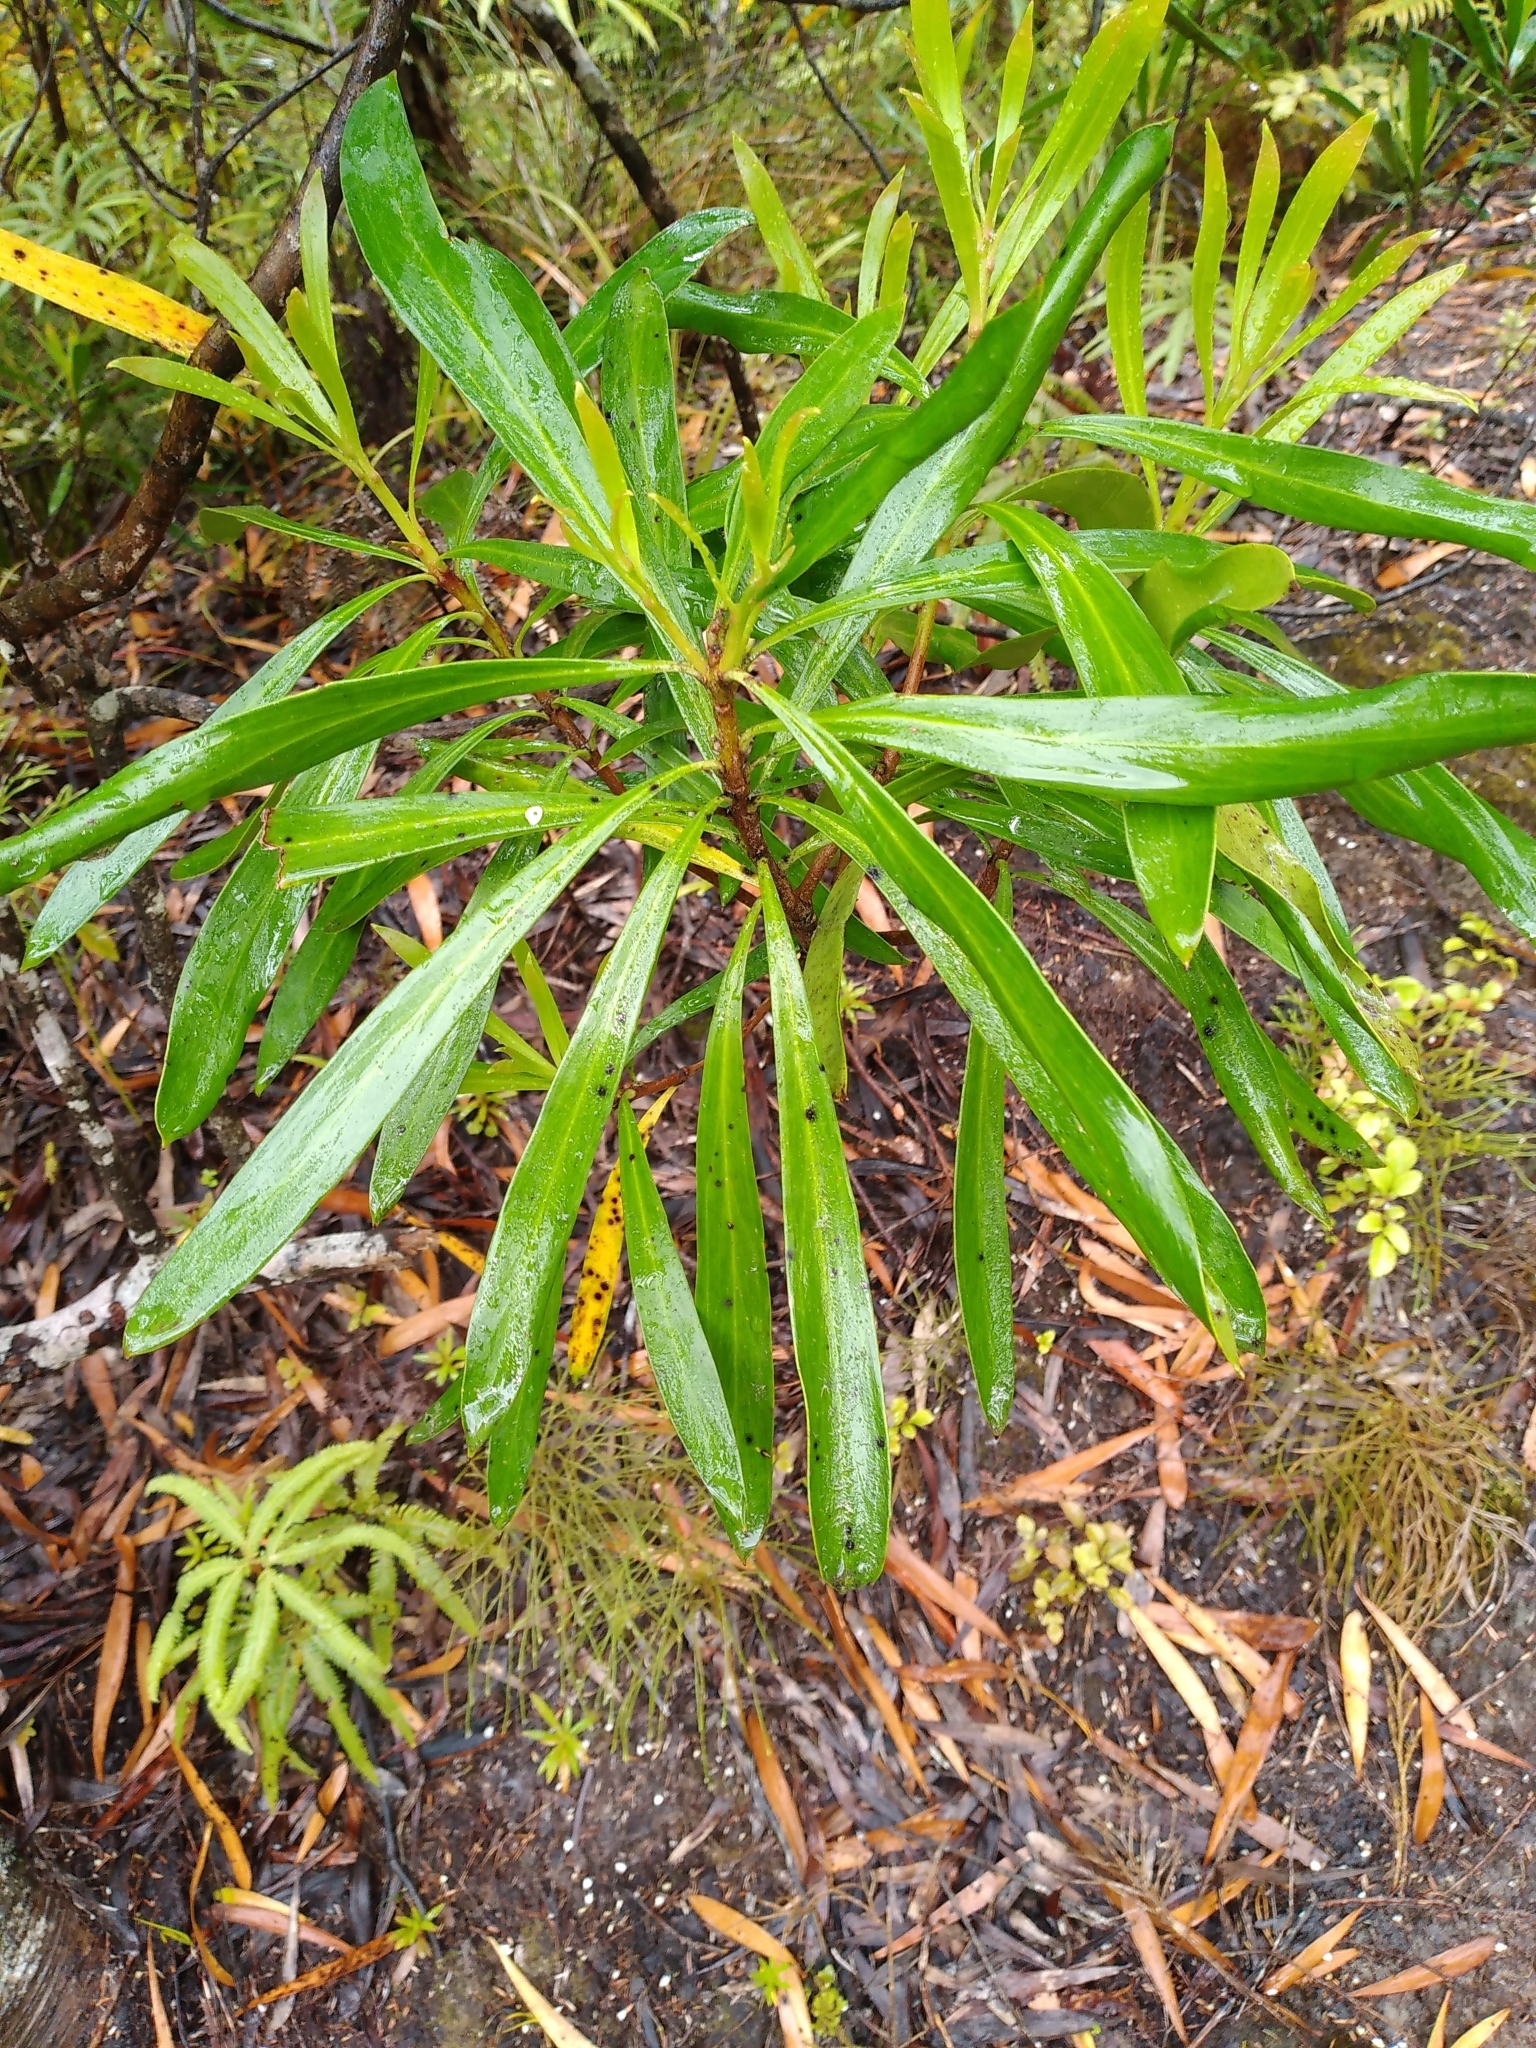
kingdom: Plantae
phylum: Tracheophyta
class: Magnoliopsida
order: Proteales
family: Proteaceae
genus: Toronia
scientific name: Toronia toru
